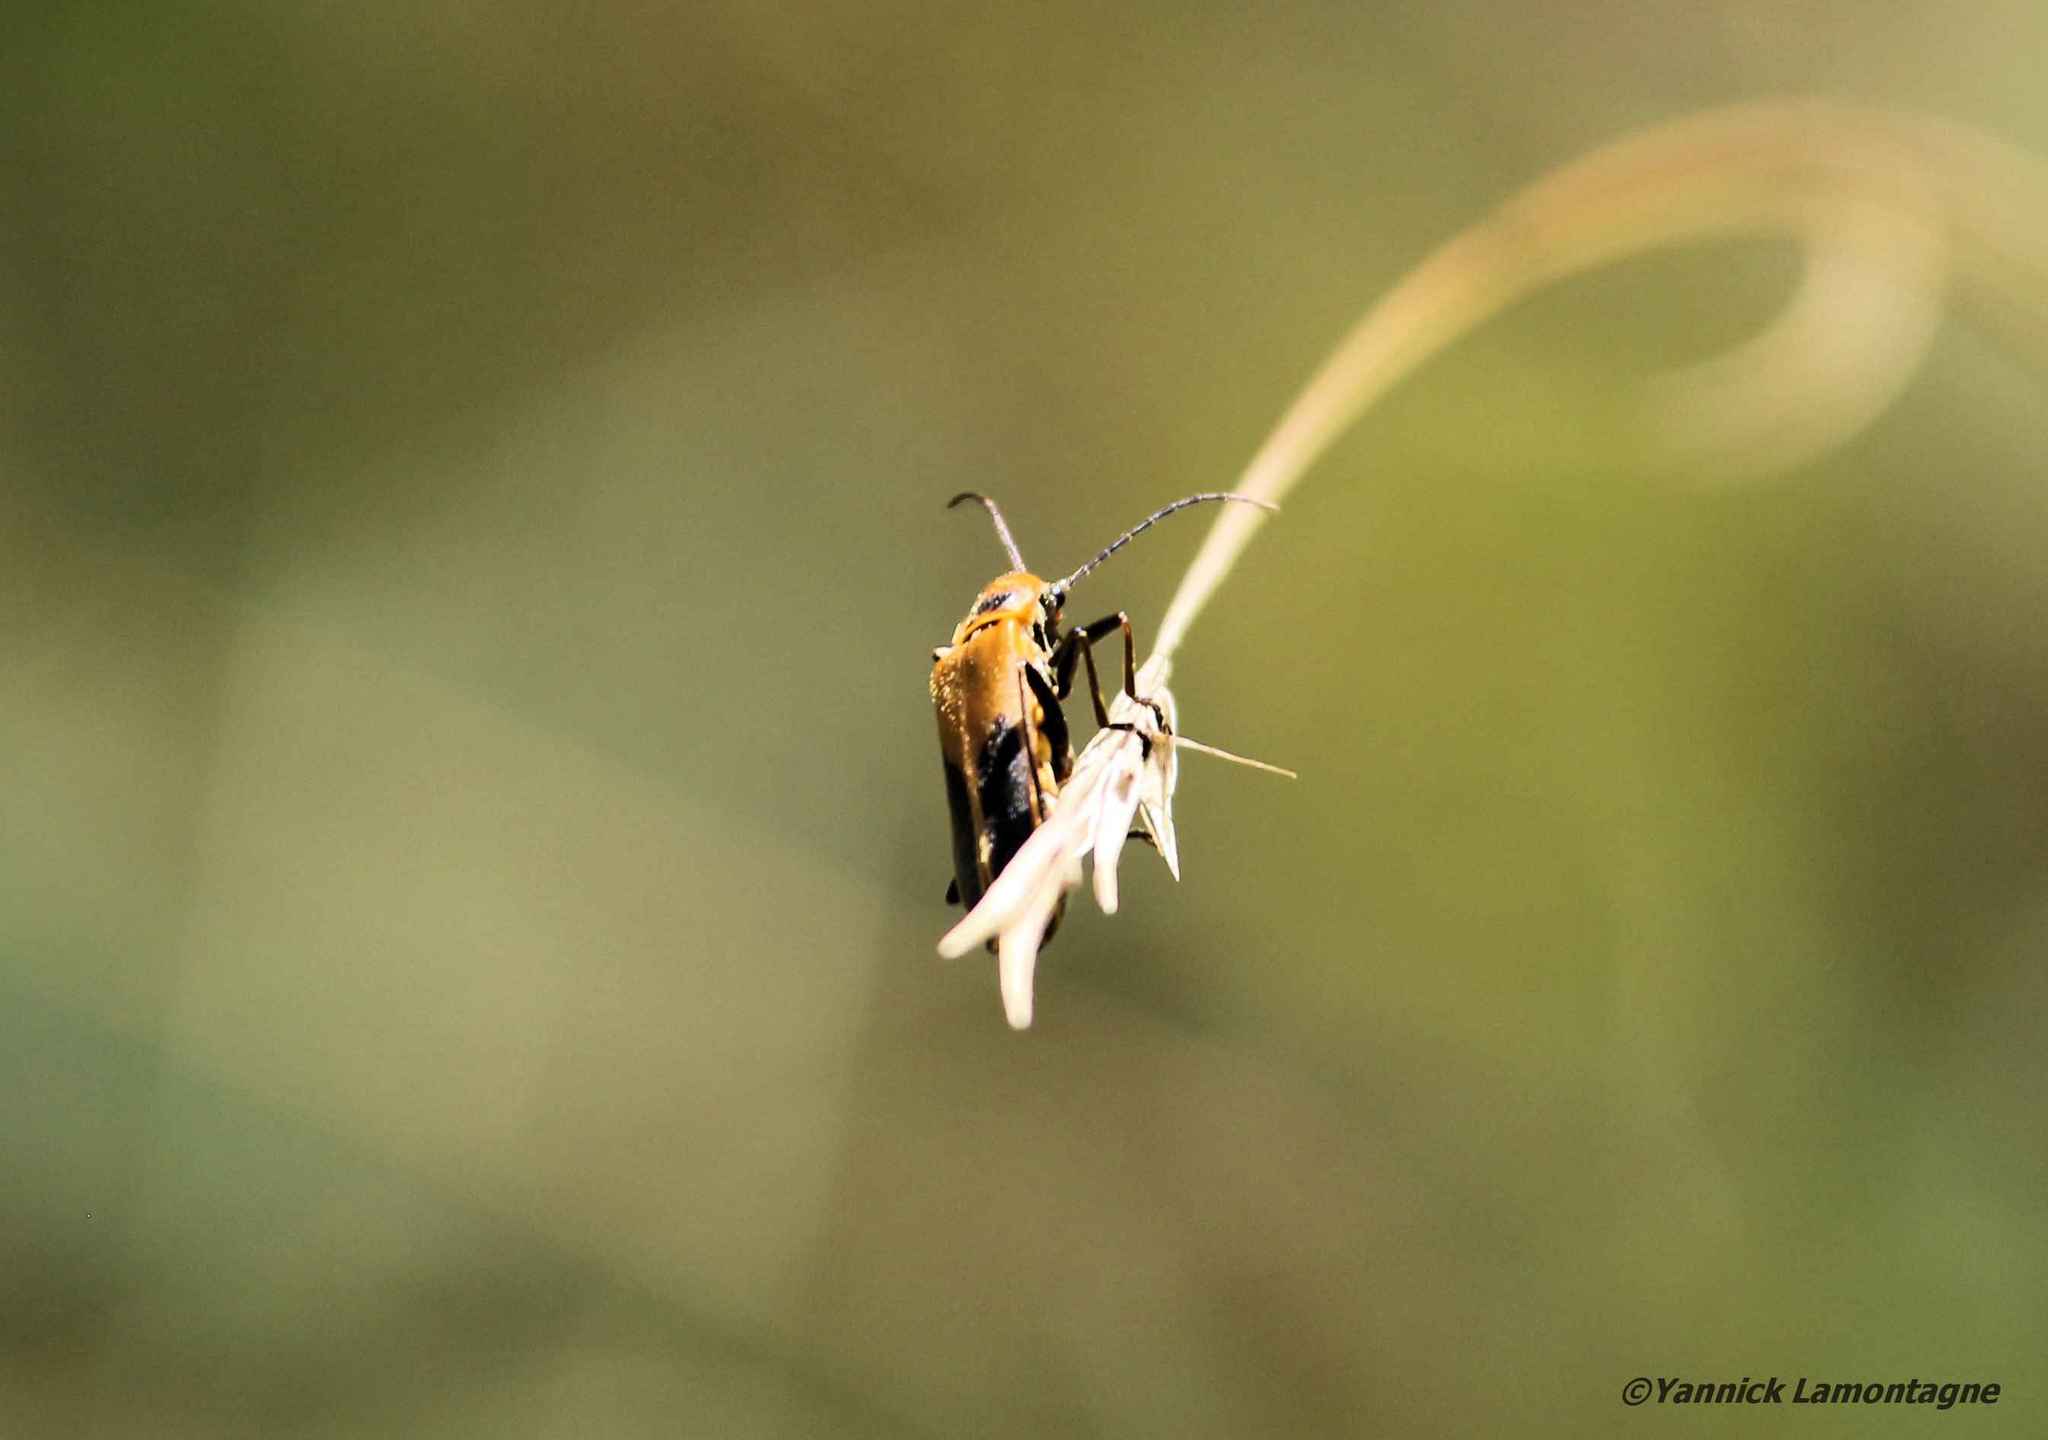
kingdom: Animalia
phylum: Arthropoda
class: Insecta
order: Coleoptera
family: Cantharidae
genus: Chauliognathus
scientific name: Chauliognathus pensylvanicus
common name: Goldenrod soldier beetle
